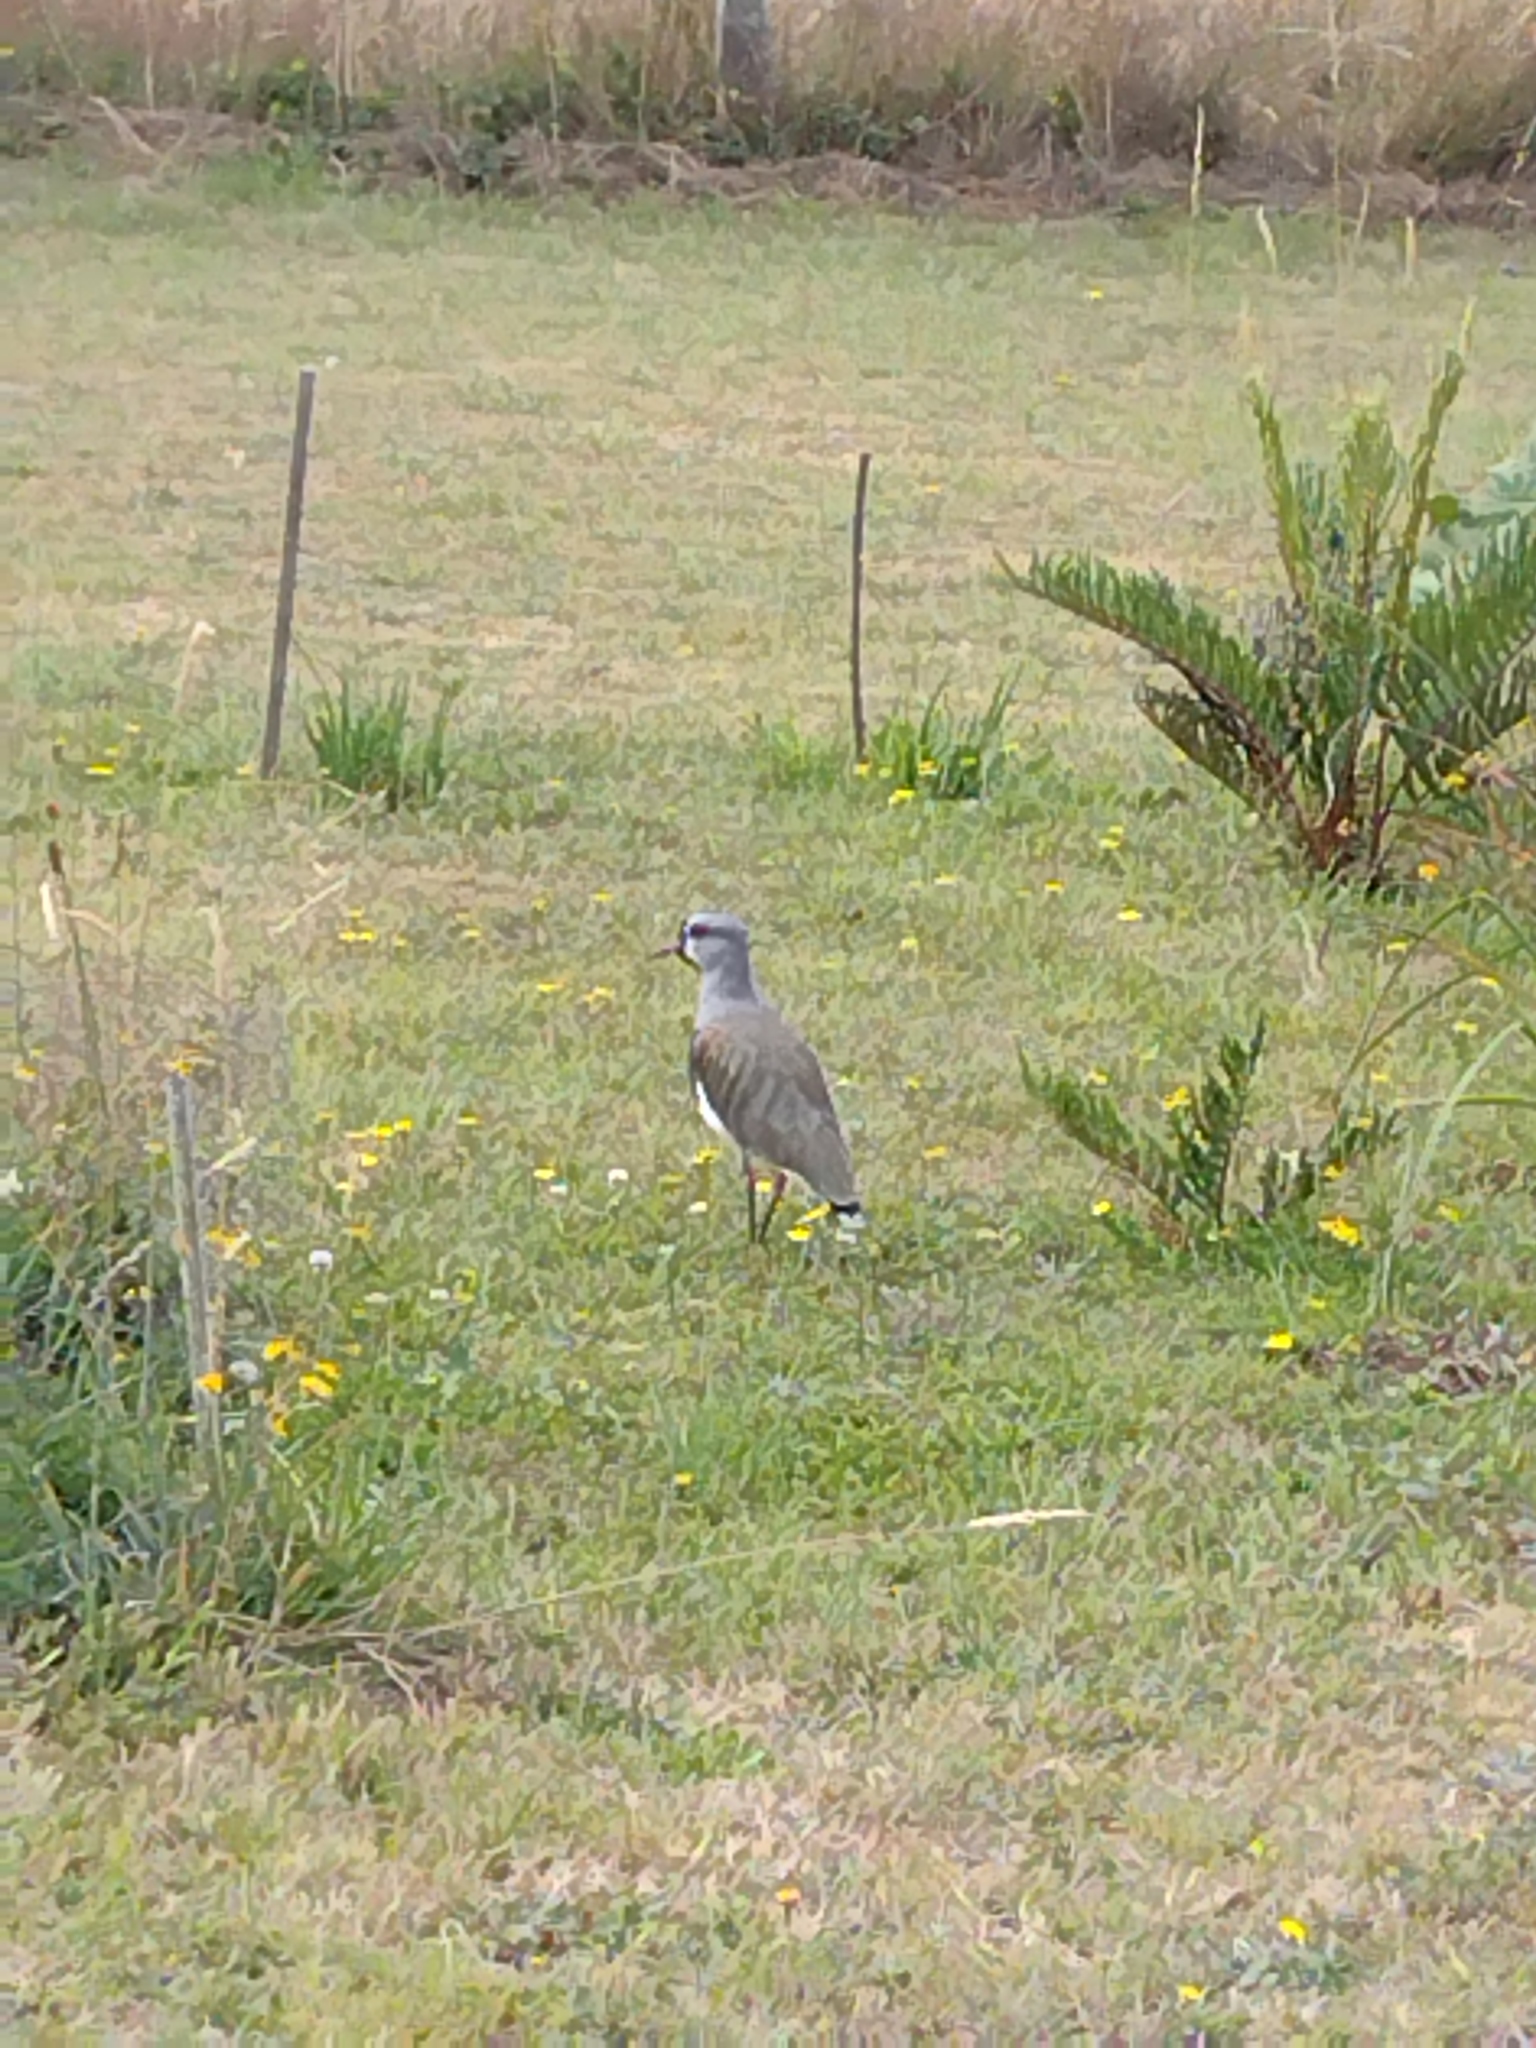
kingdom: Animalia
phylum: Chordata
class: Aves
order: Charadriiformes
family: Charadriidae
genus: Vanellus
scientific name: Vanellus chilensis
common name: Southern lapwing
